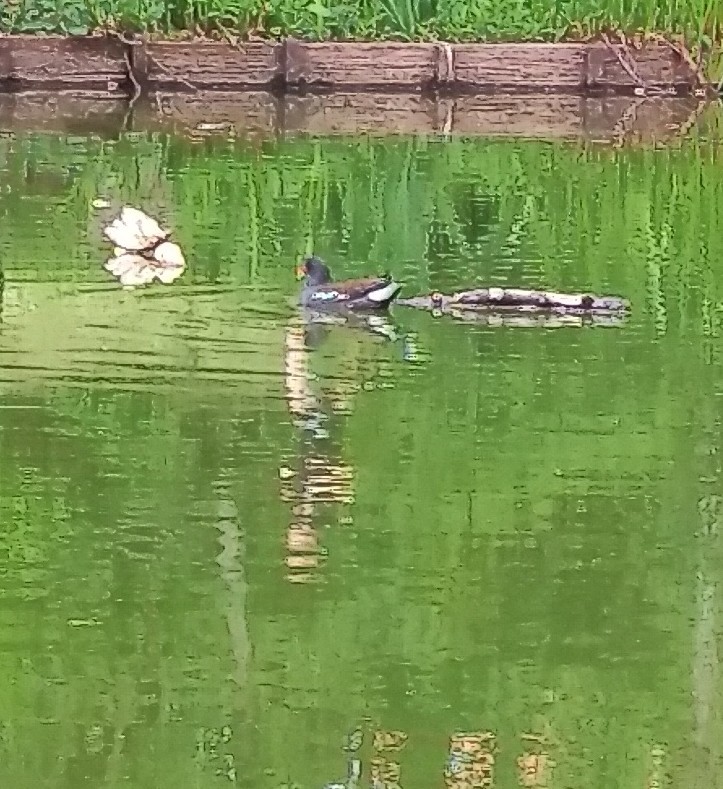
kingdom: Animalia
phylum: Chordata
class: Aves
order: Gruiformes
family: Rallidae
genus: Gallinula
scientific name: Gallinula chloropus
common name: Common moorhen
